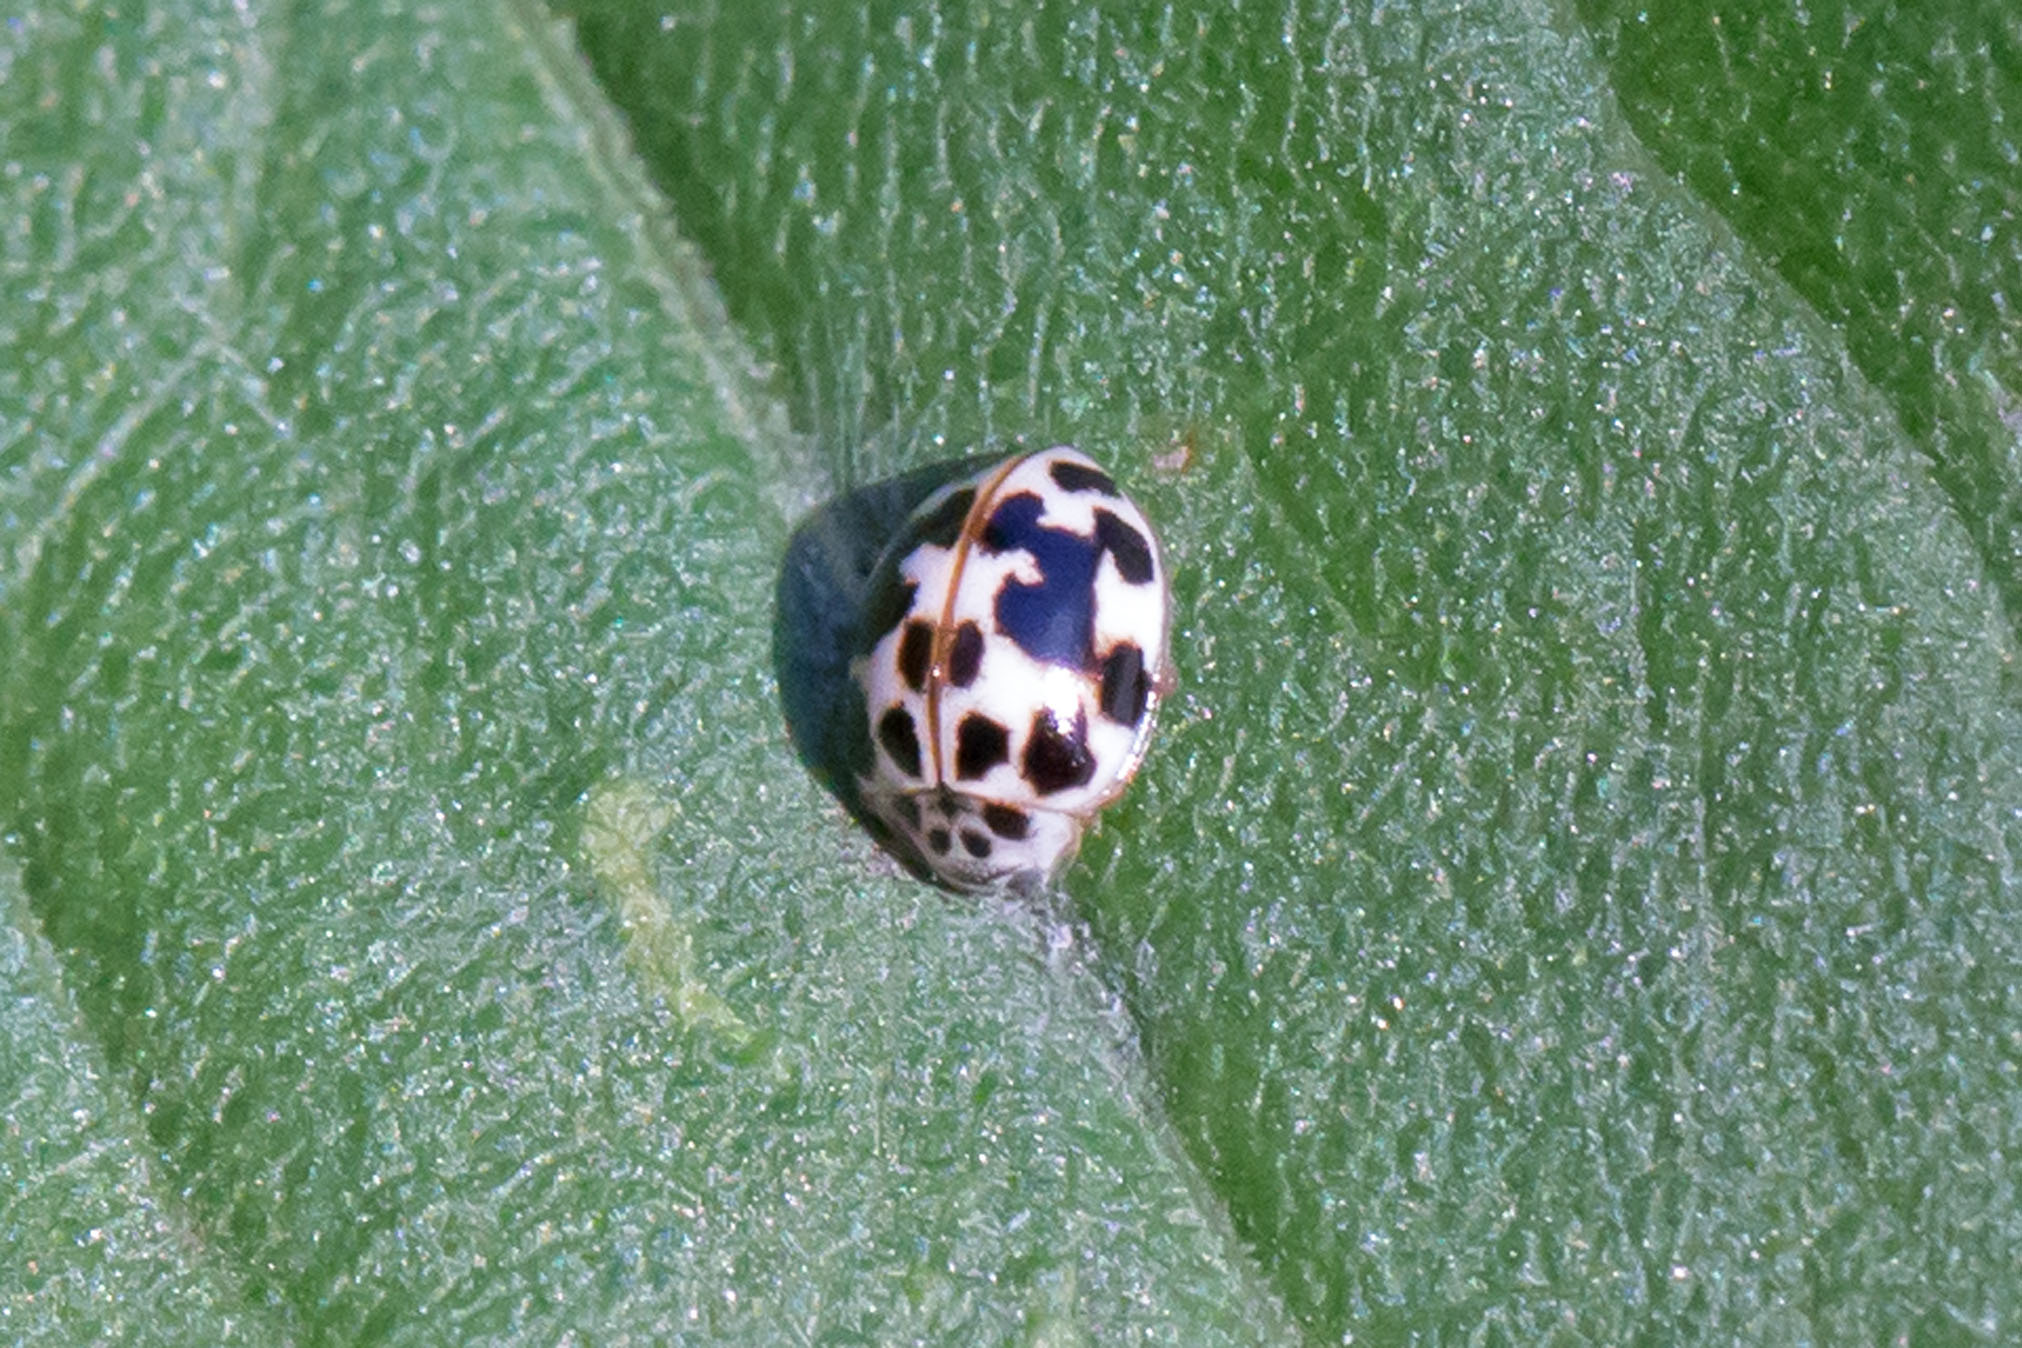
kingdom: Animalia
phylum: Arthropoda
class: Insecta
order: Coleoptera
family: Coccinellidae
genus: Psyllobora
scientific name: Psyllobora vigintimaculata
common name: Ladybird beetle
